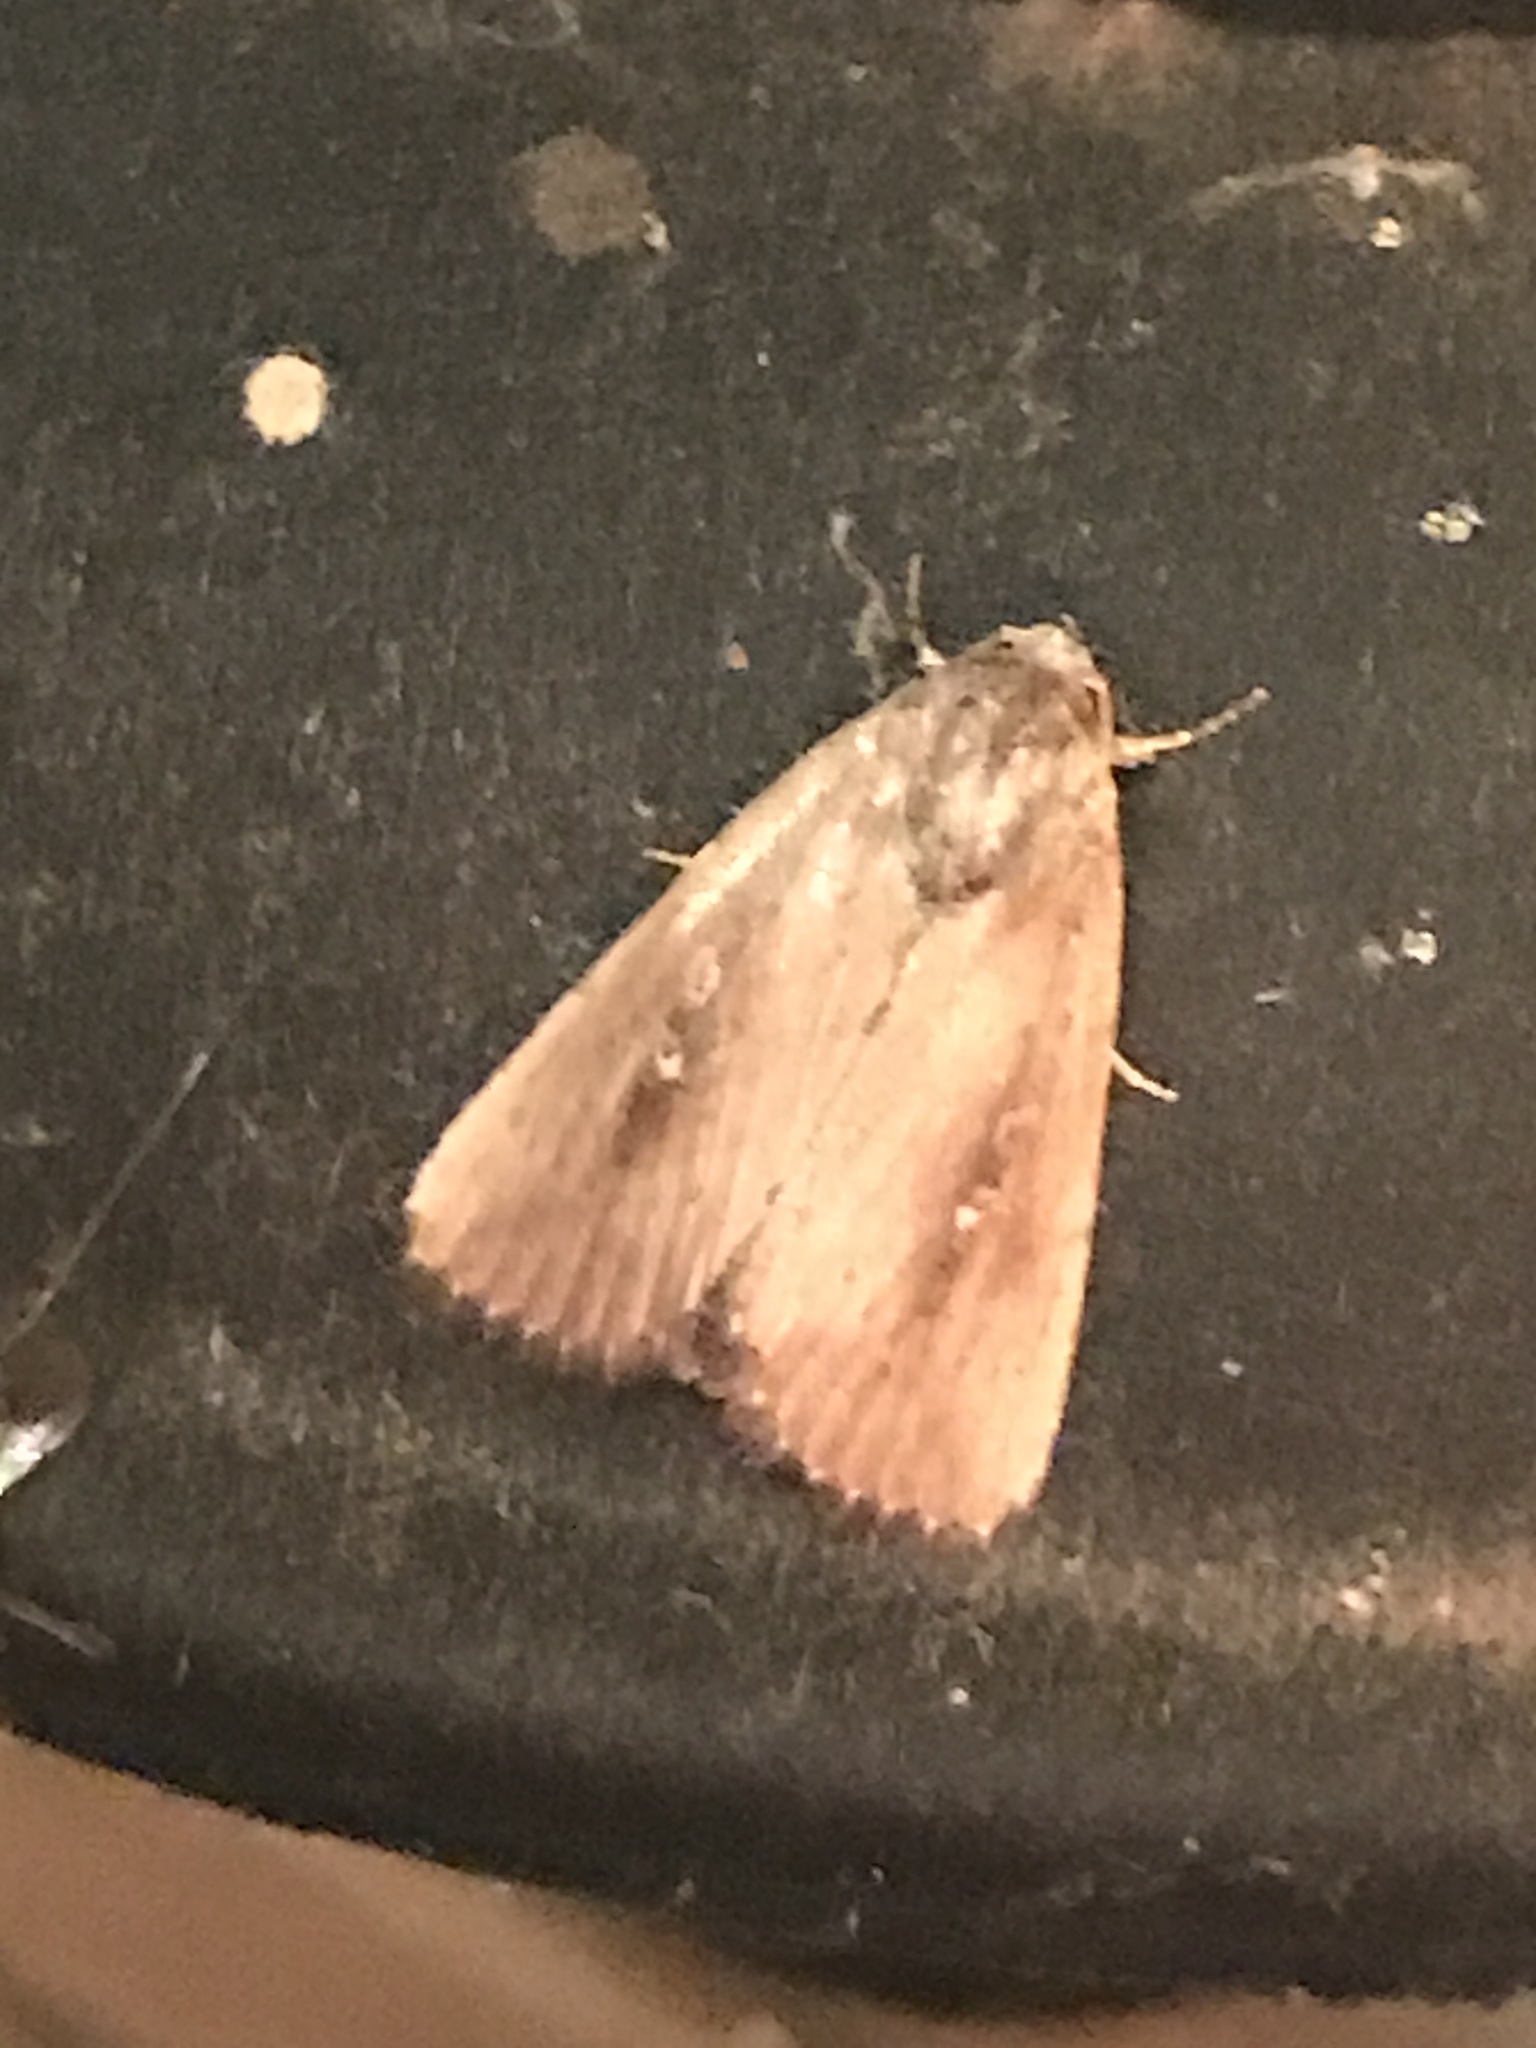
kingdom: Animalia
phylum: Arthropoda
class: Insecta
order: Lepidoptera
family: Noctuidae
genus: Condica
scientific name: Condica videns
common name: White-dotted groundling
